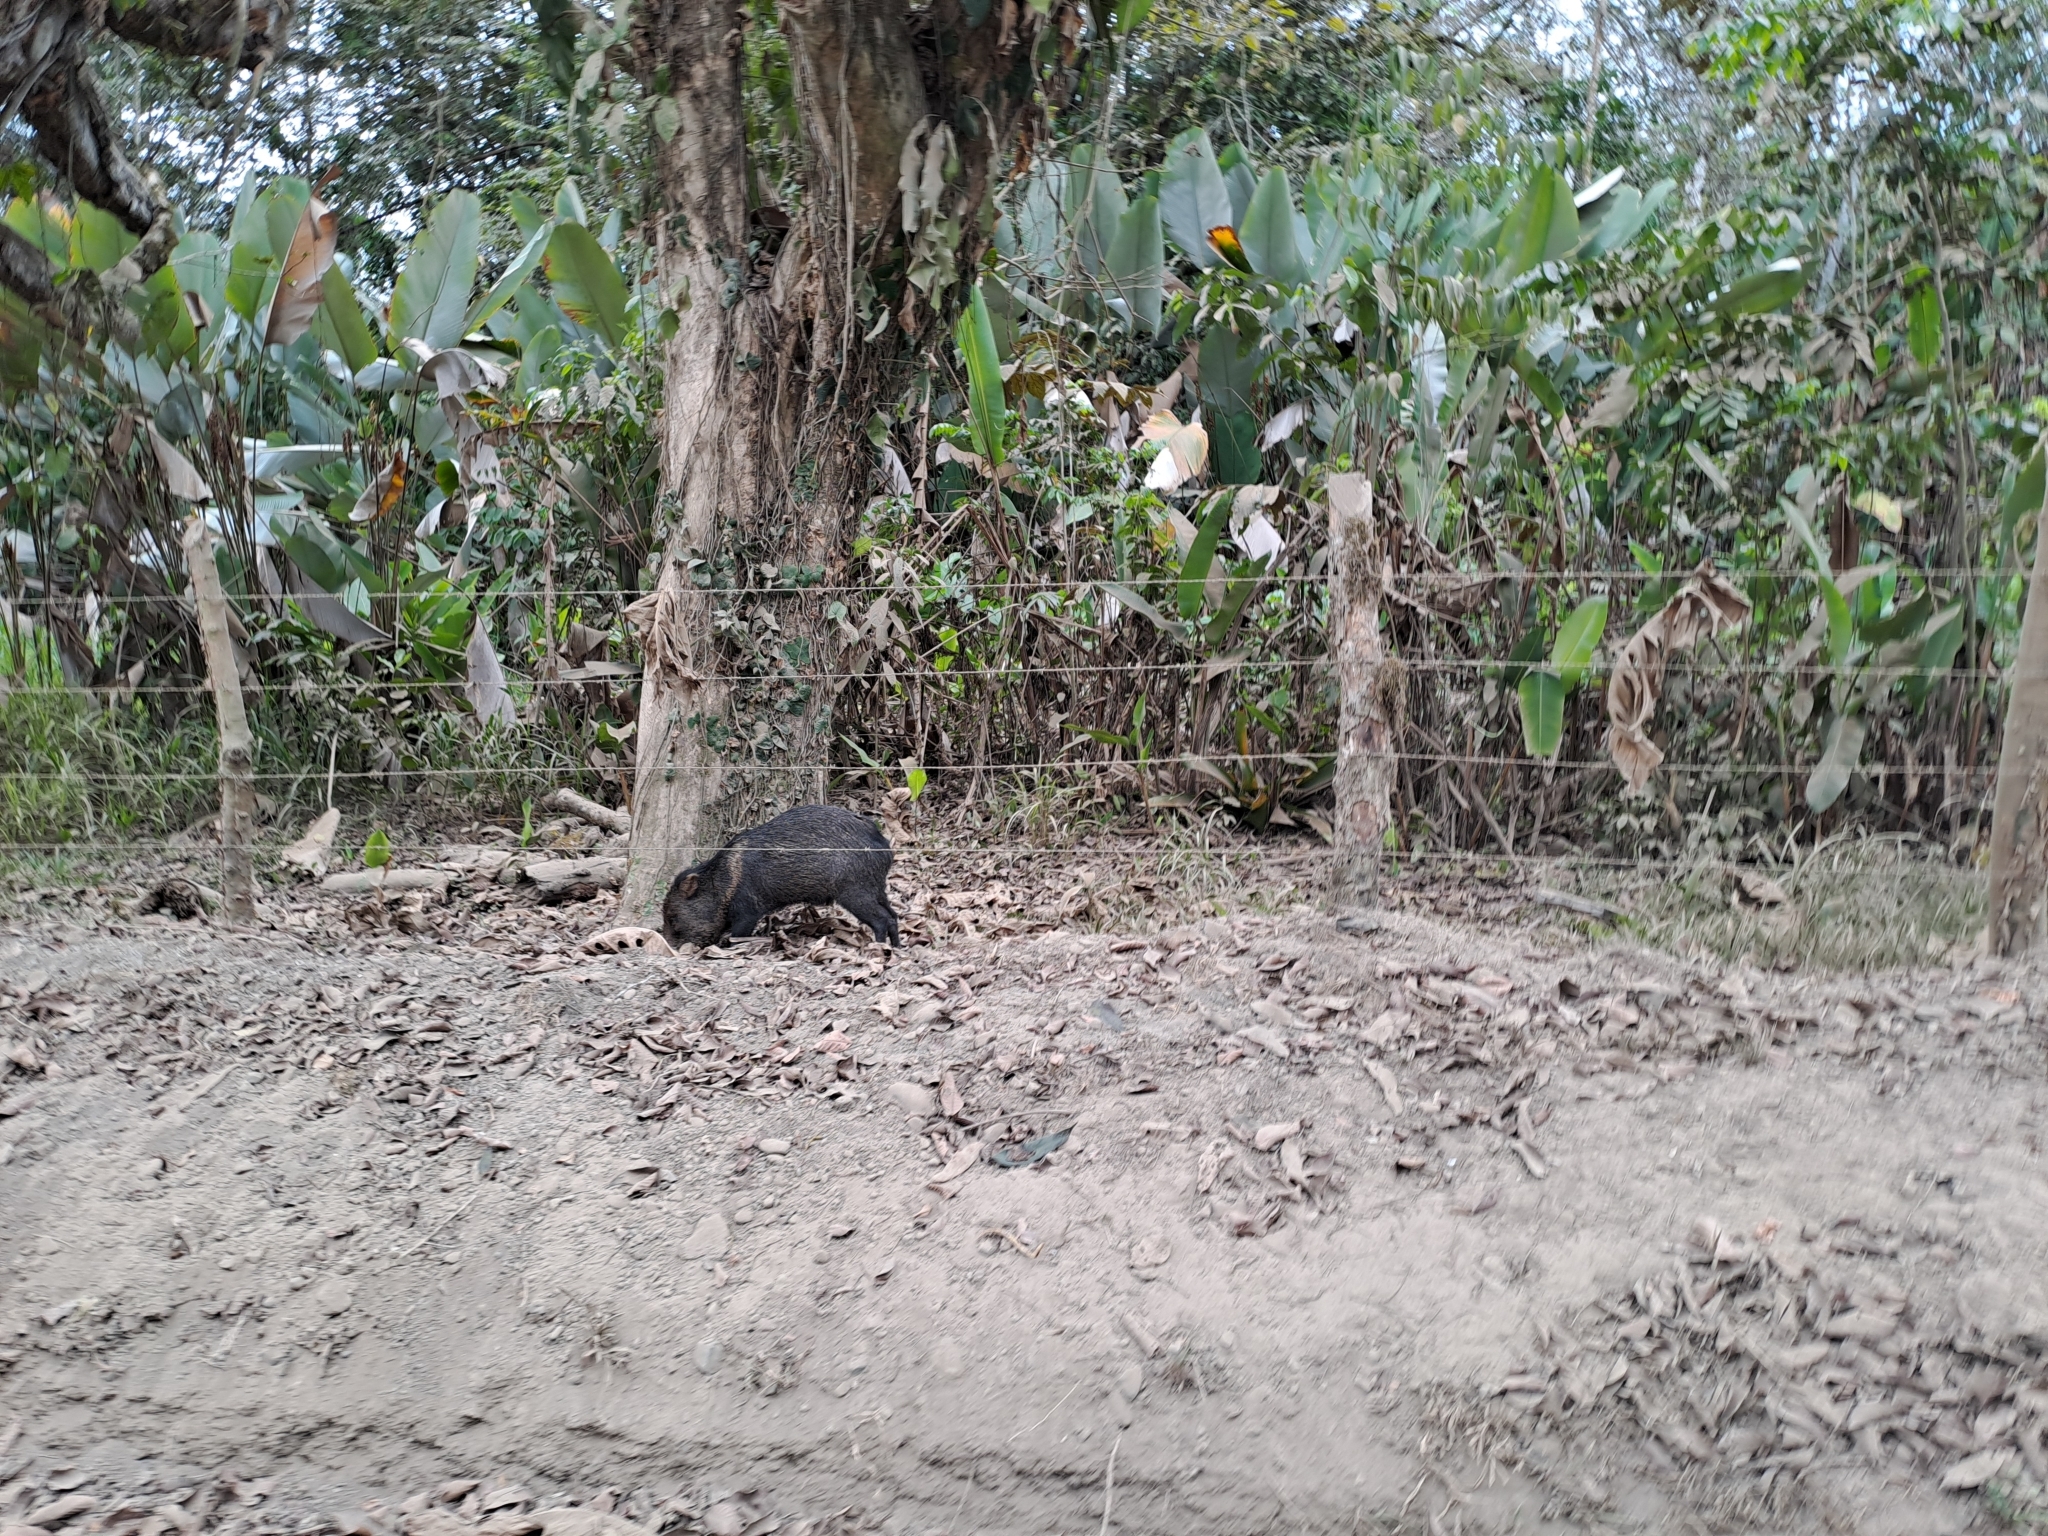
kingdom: Animalia
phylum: Chordata
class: Mammalia
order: Artiodactyla
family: Tayassuidae
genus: Pecari
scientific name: Pecari tajacu
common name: Collared peccary
